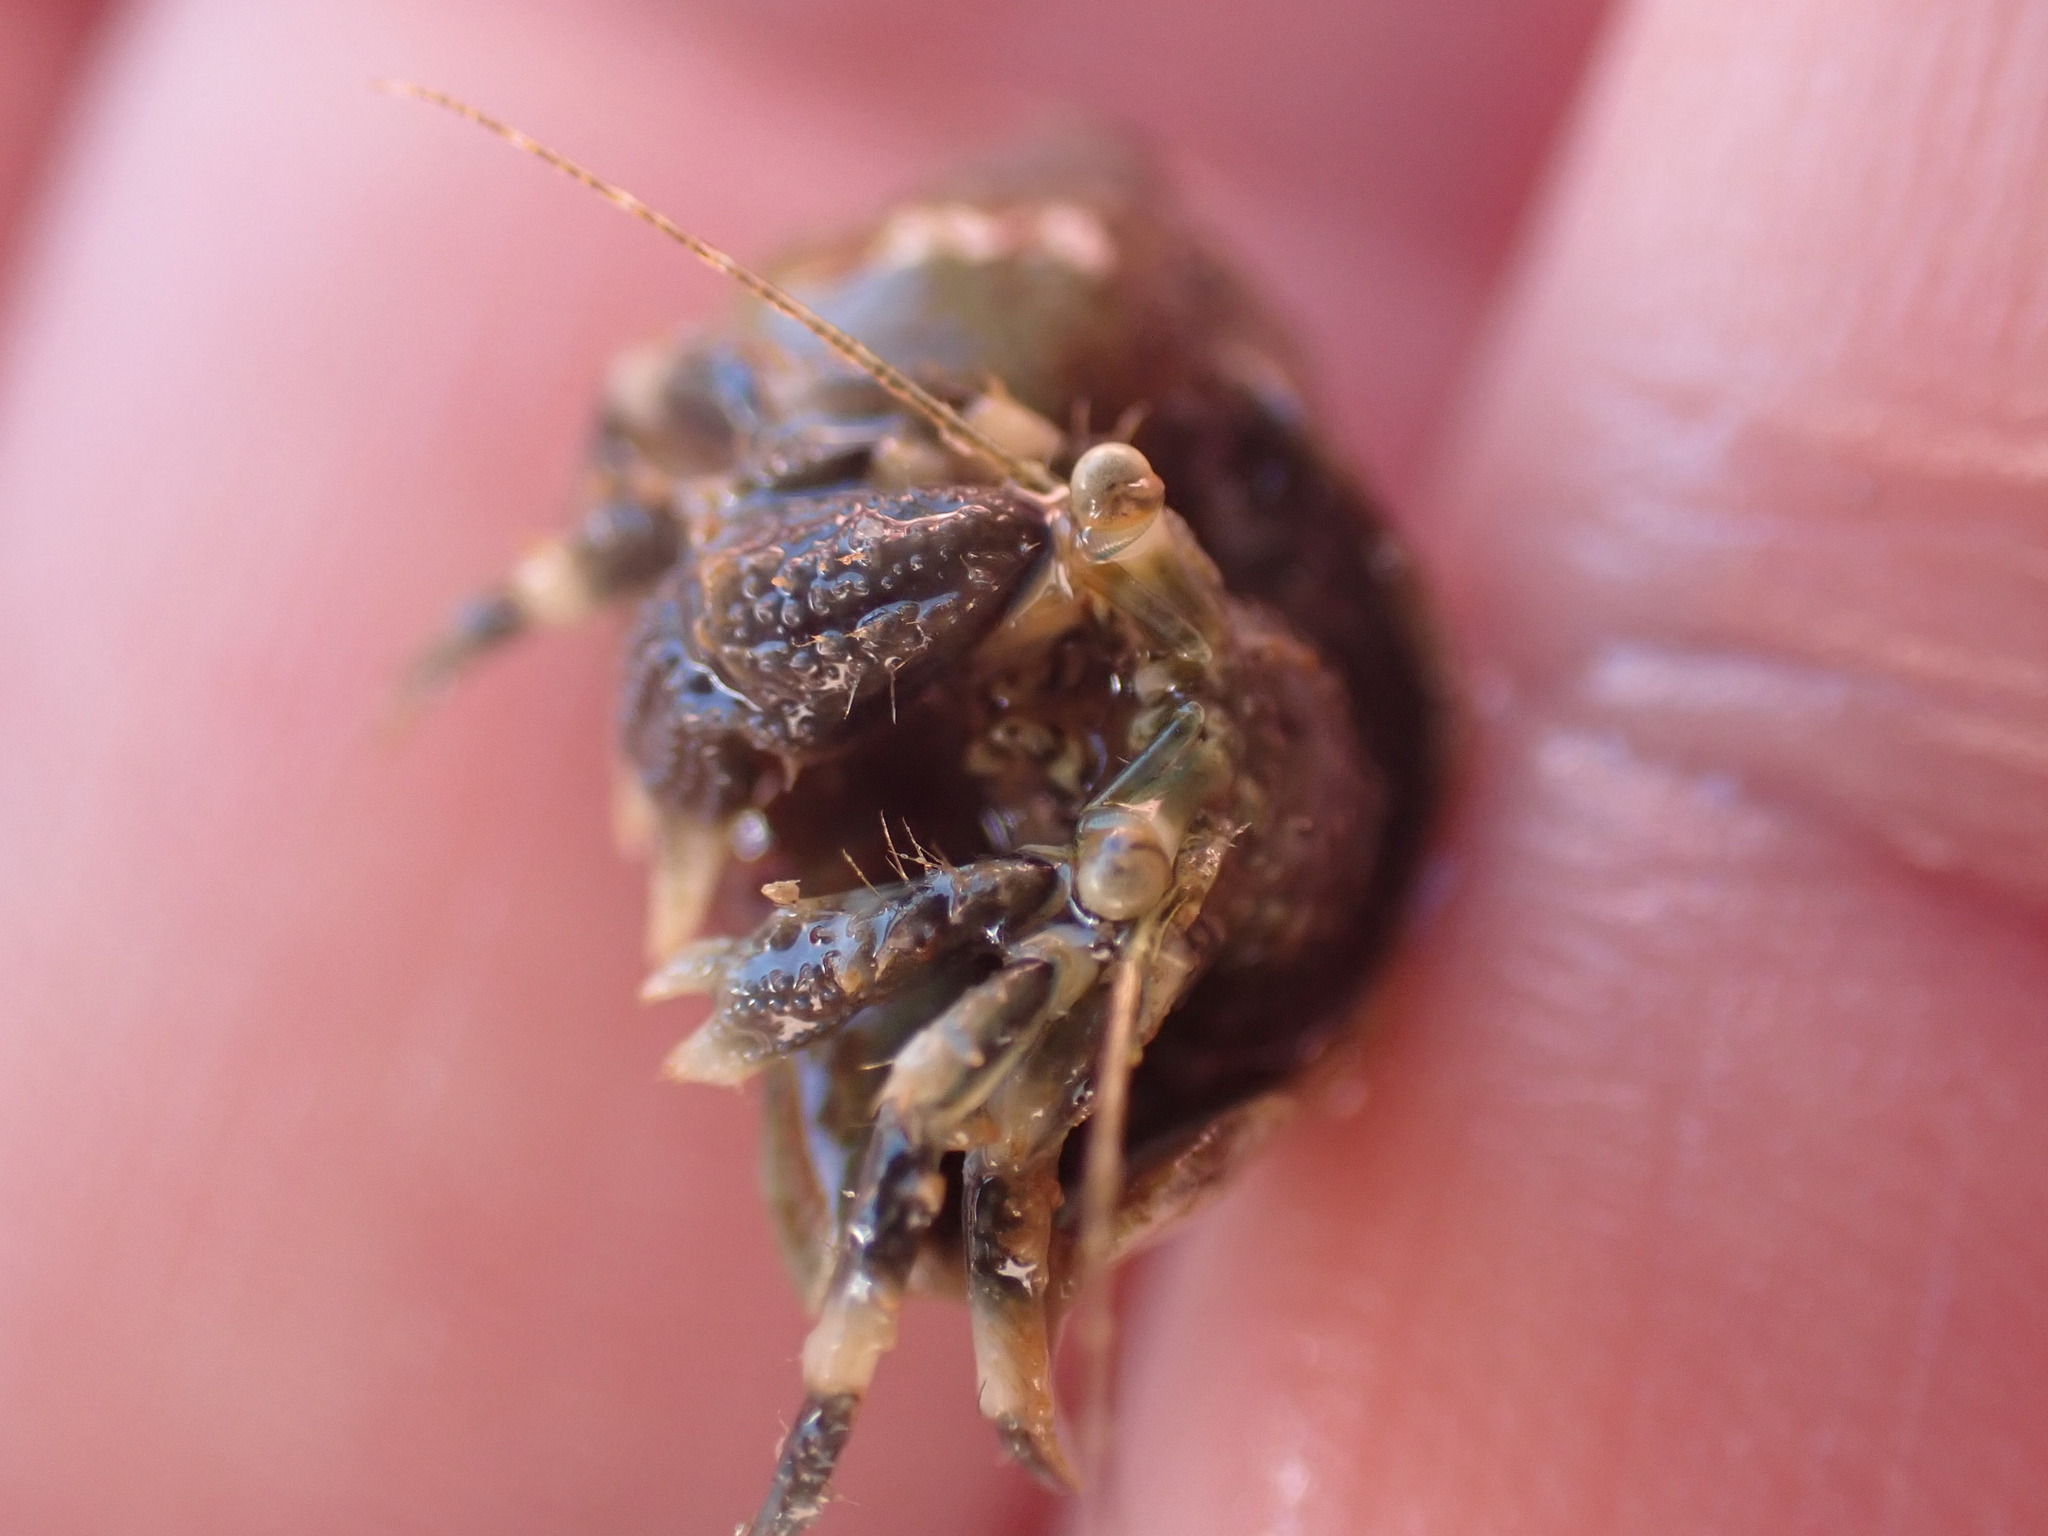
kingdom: Animalia
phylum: Arthropoda
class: Malacostraca
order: Decapoda
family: Paguridae
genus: Pagurus
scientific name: Pagurus novizealandiae
